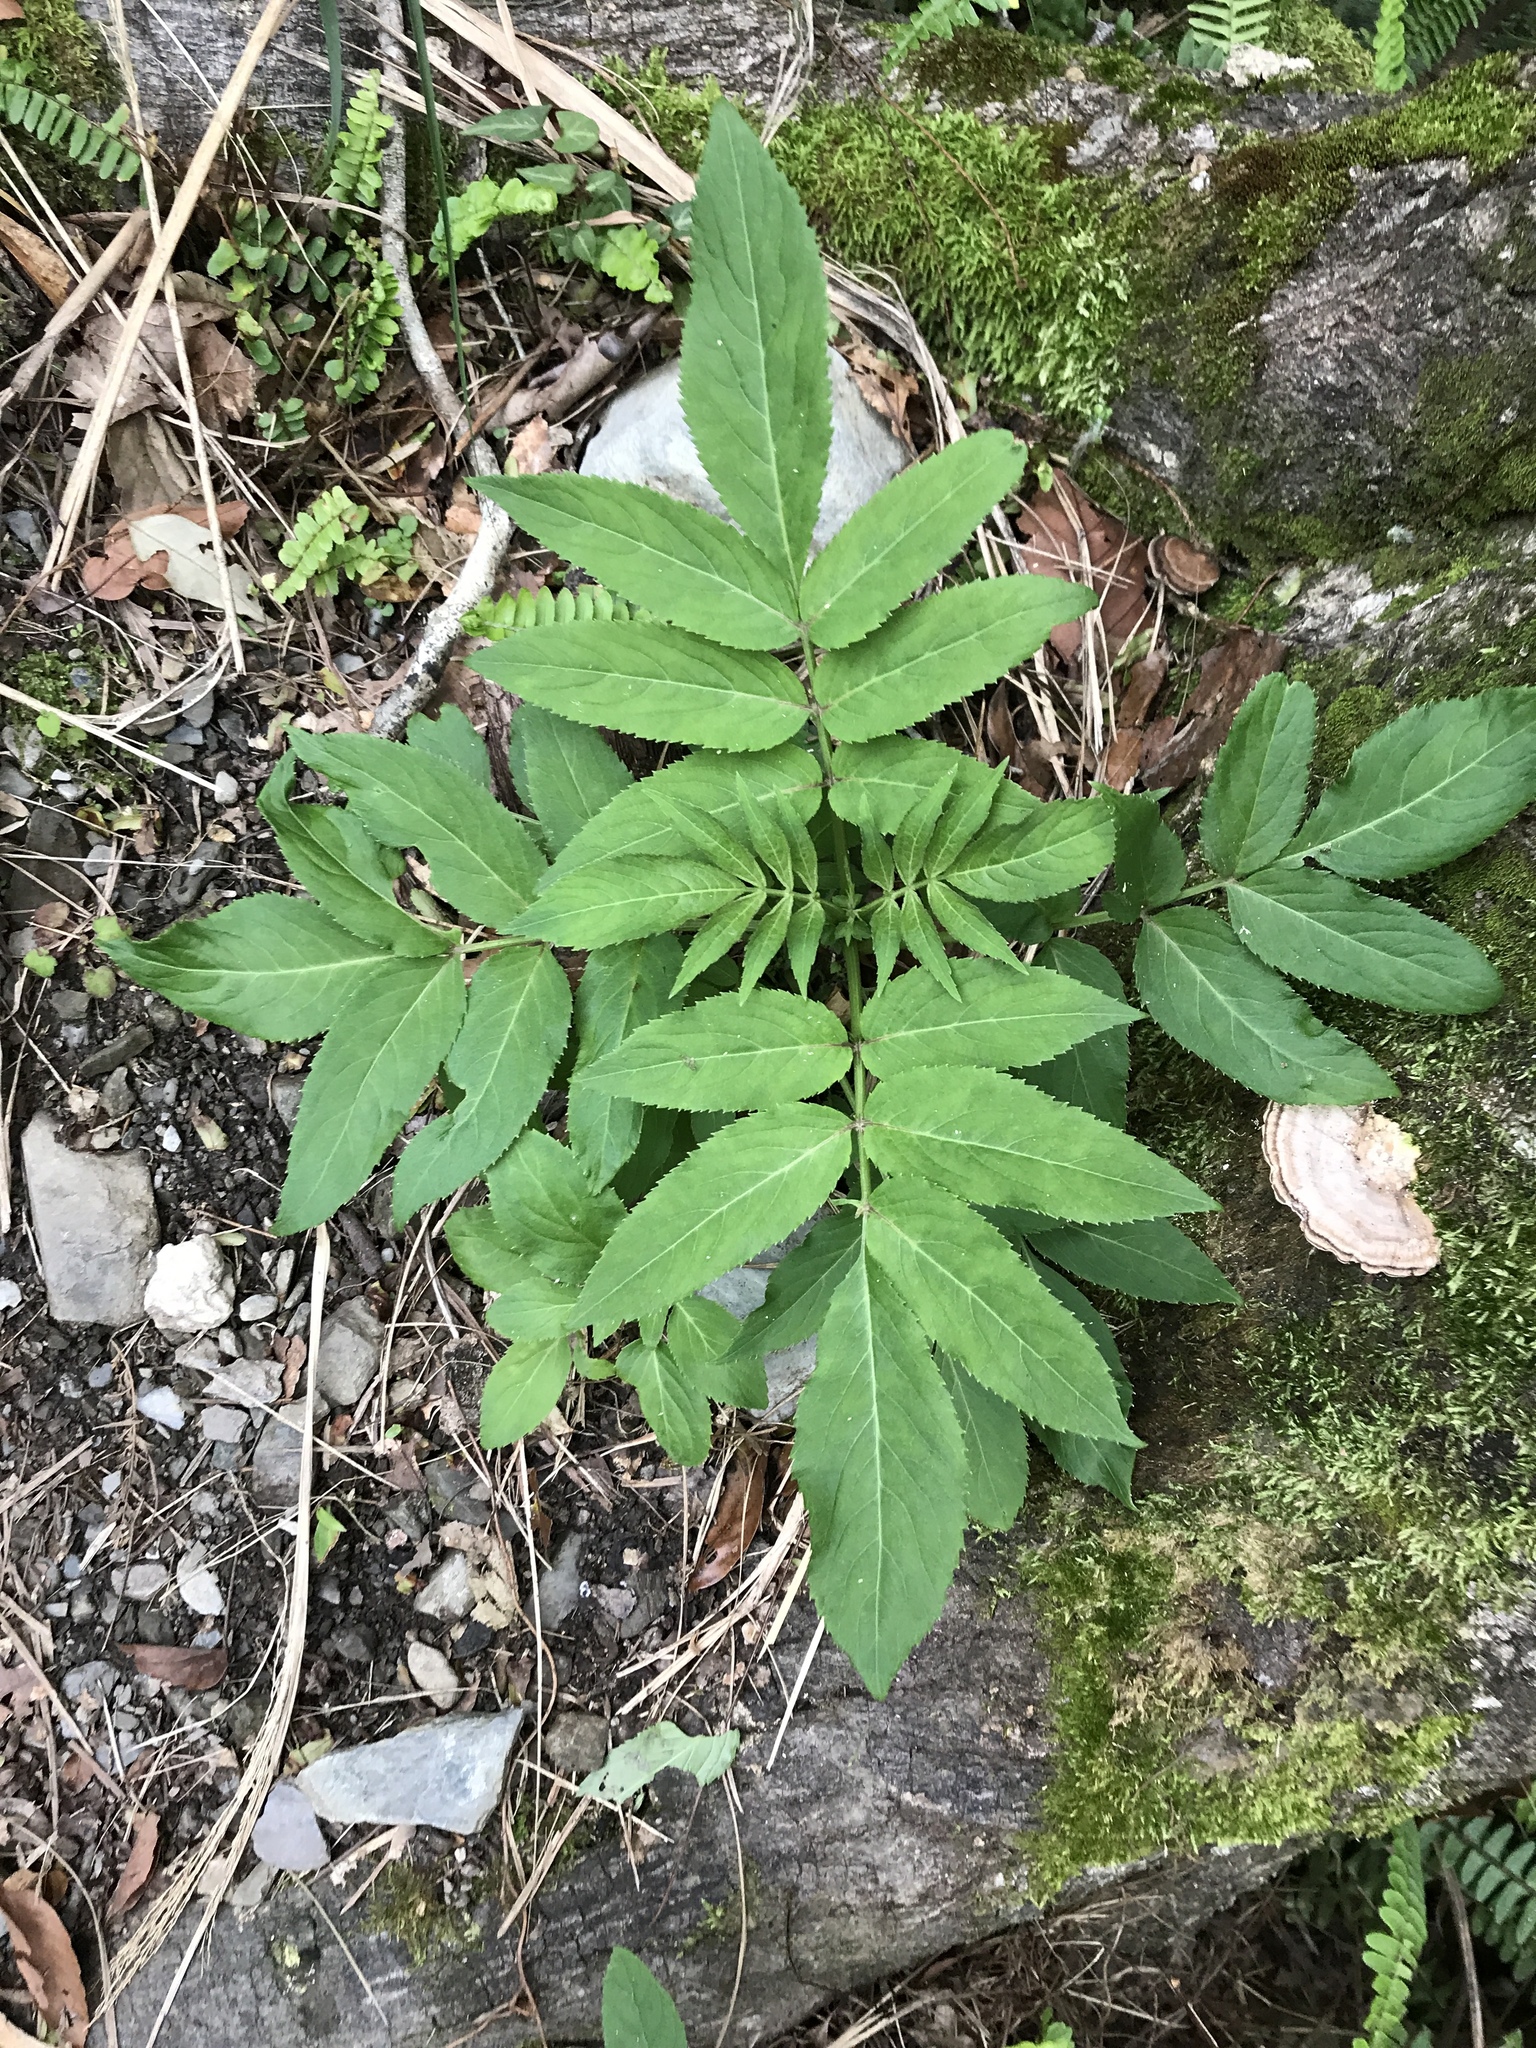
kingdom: Plantae
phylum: Tracheophyta
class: Magnoliopsida
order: Dipsacales
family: Viburnaceae
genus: Sambucus
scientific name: Sambucus javanica
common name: Chinese elder
